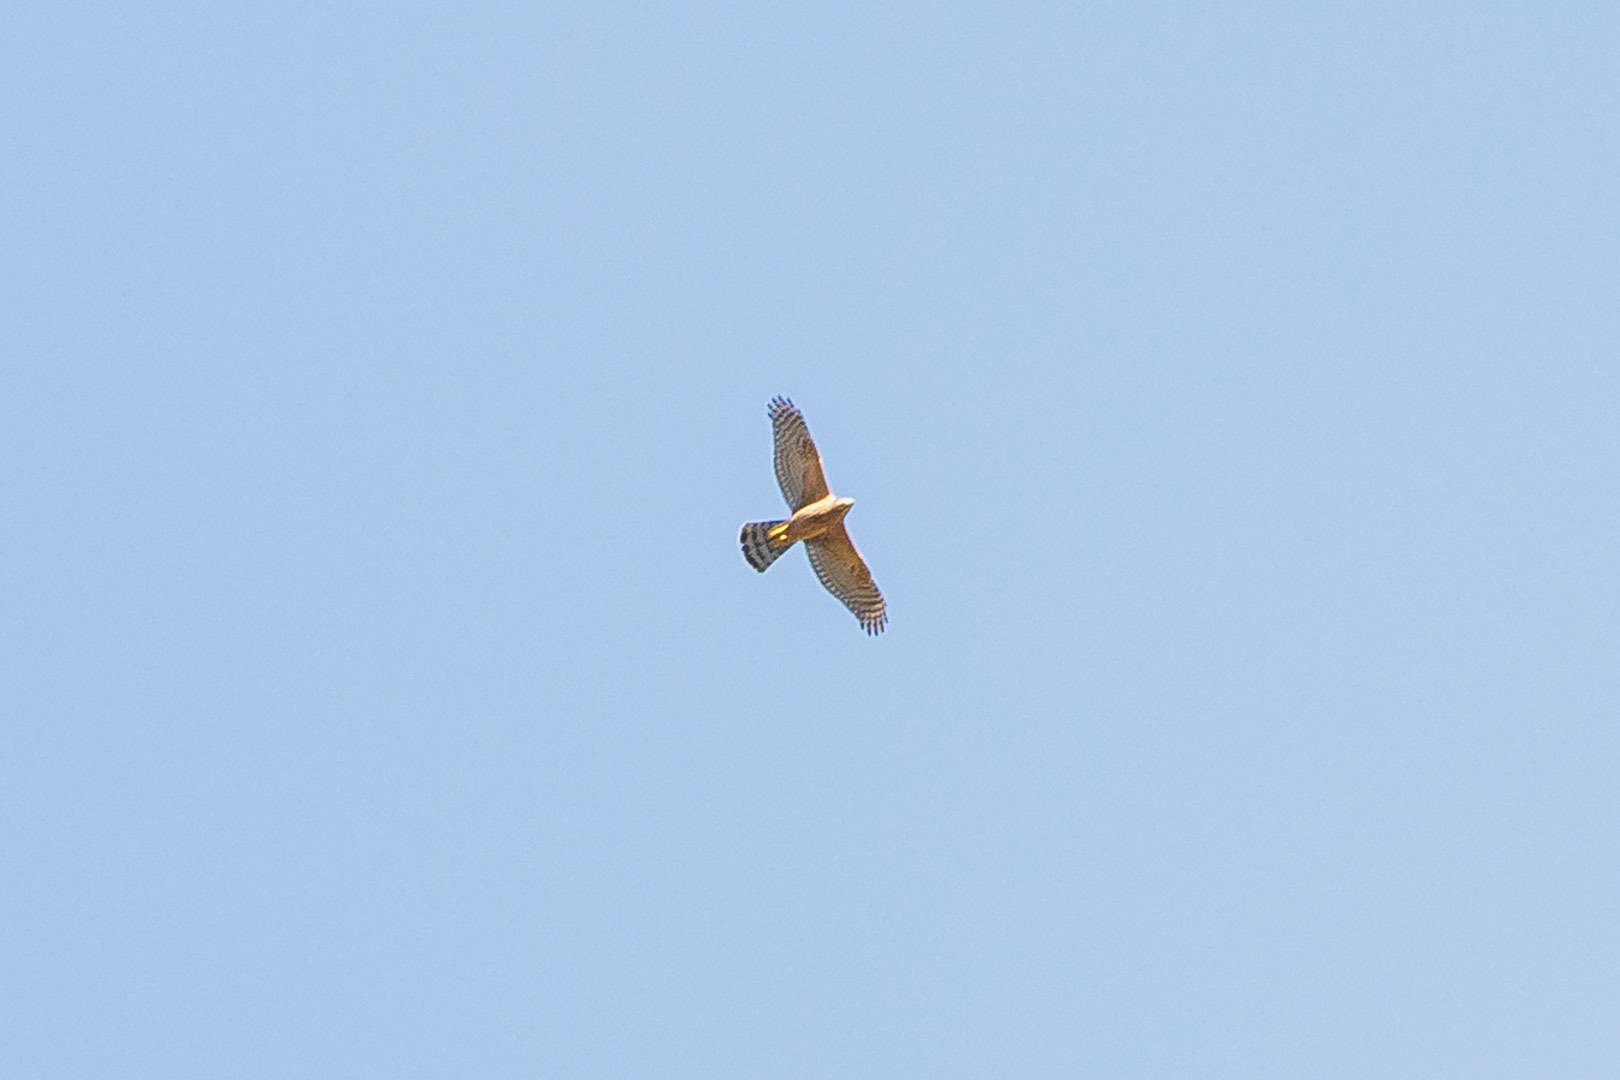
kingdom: Animalia
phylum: Chordata
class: Aves
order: Accipitriformes
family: Accipitridae
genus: Accipiter
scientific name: Accipiter gentilis
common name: Northern goshawk
